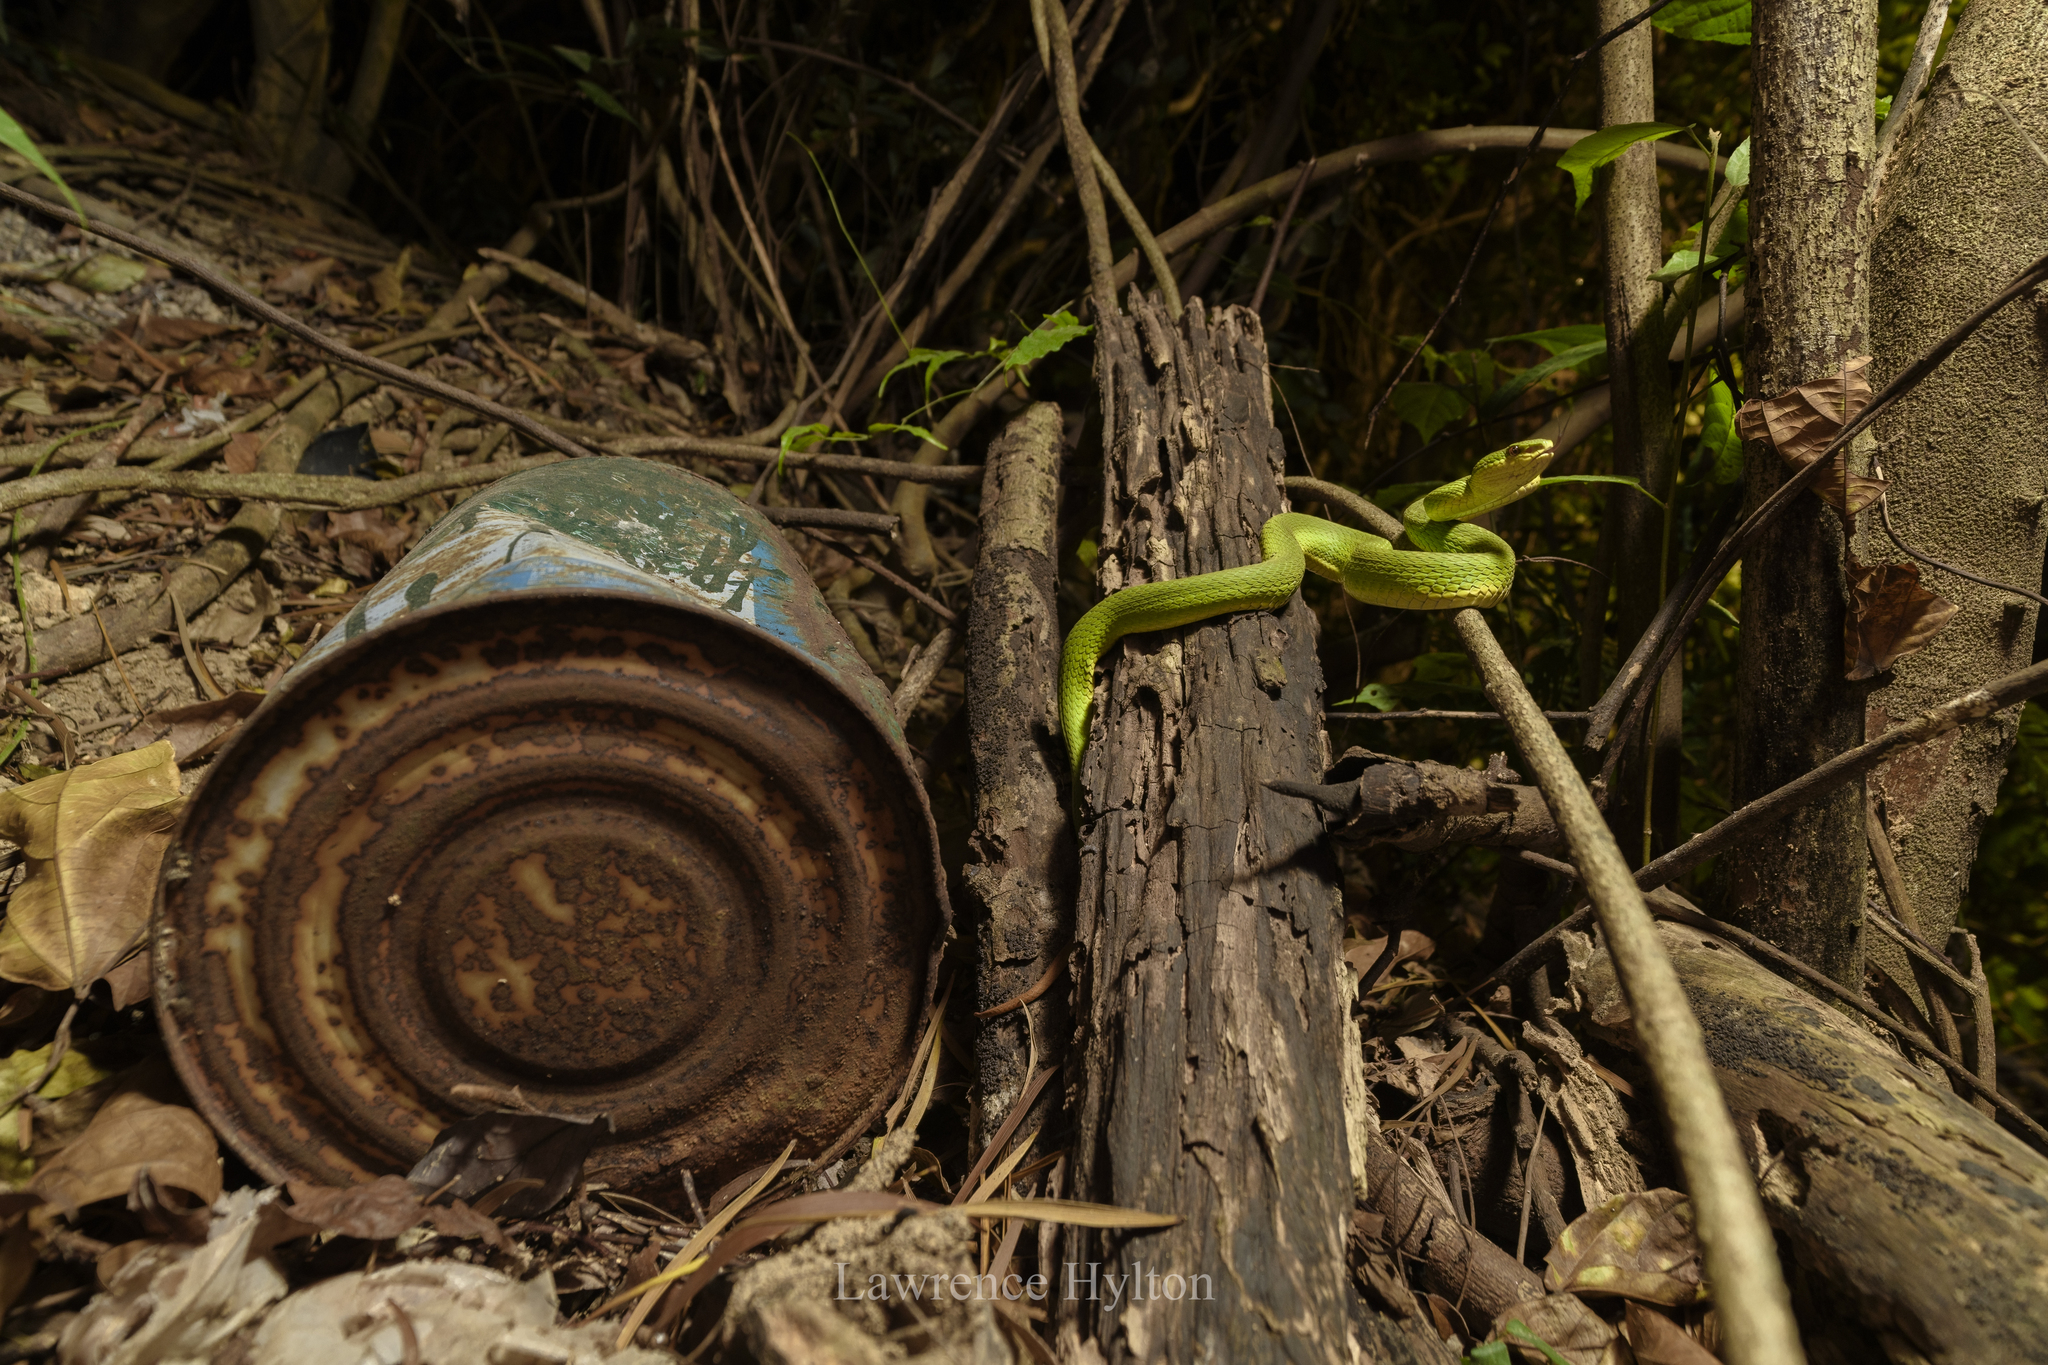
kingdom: Animalia
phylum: Chordata
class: Squamata
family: Viperidae
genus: Trimeresurus
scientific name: Trimeresurus albolabris
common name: White-lipped pitviper
